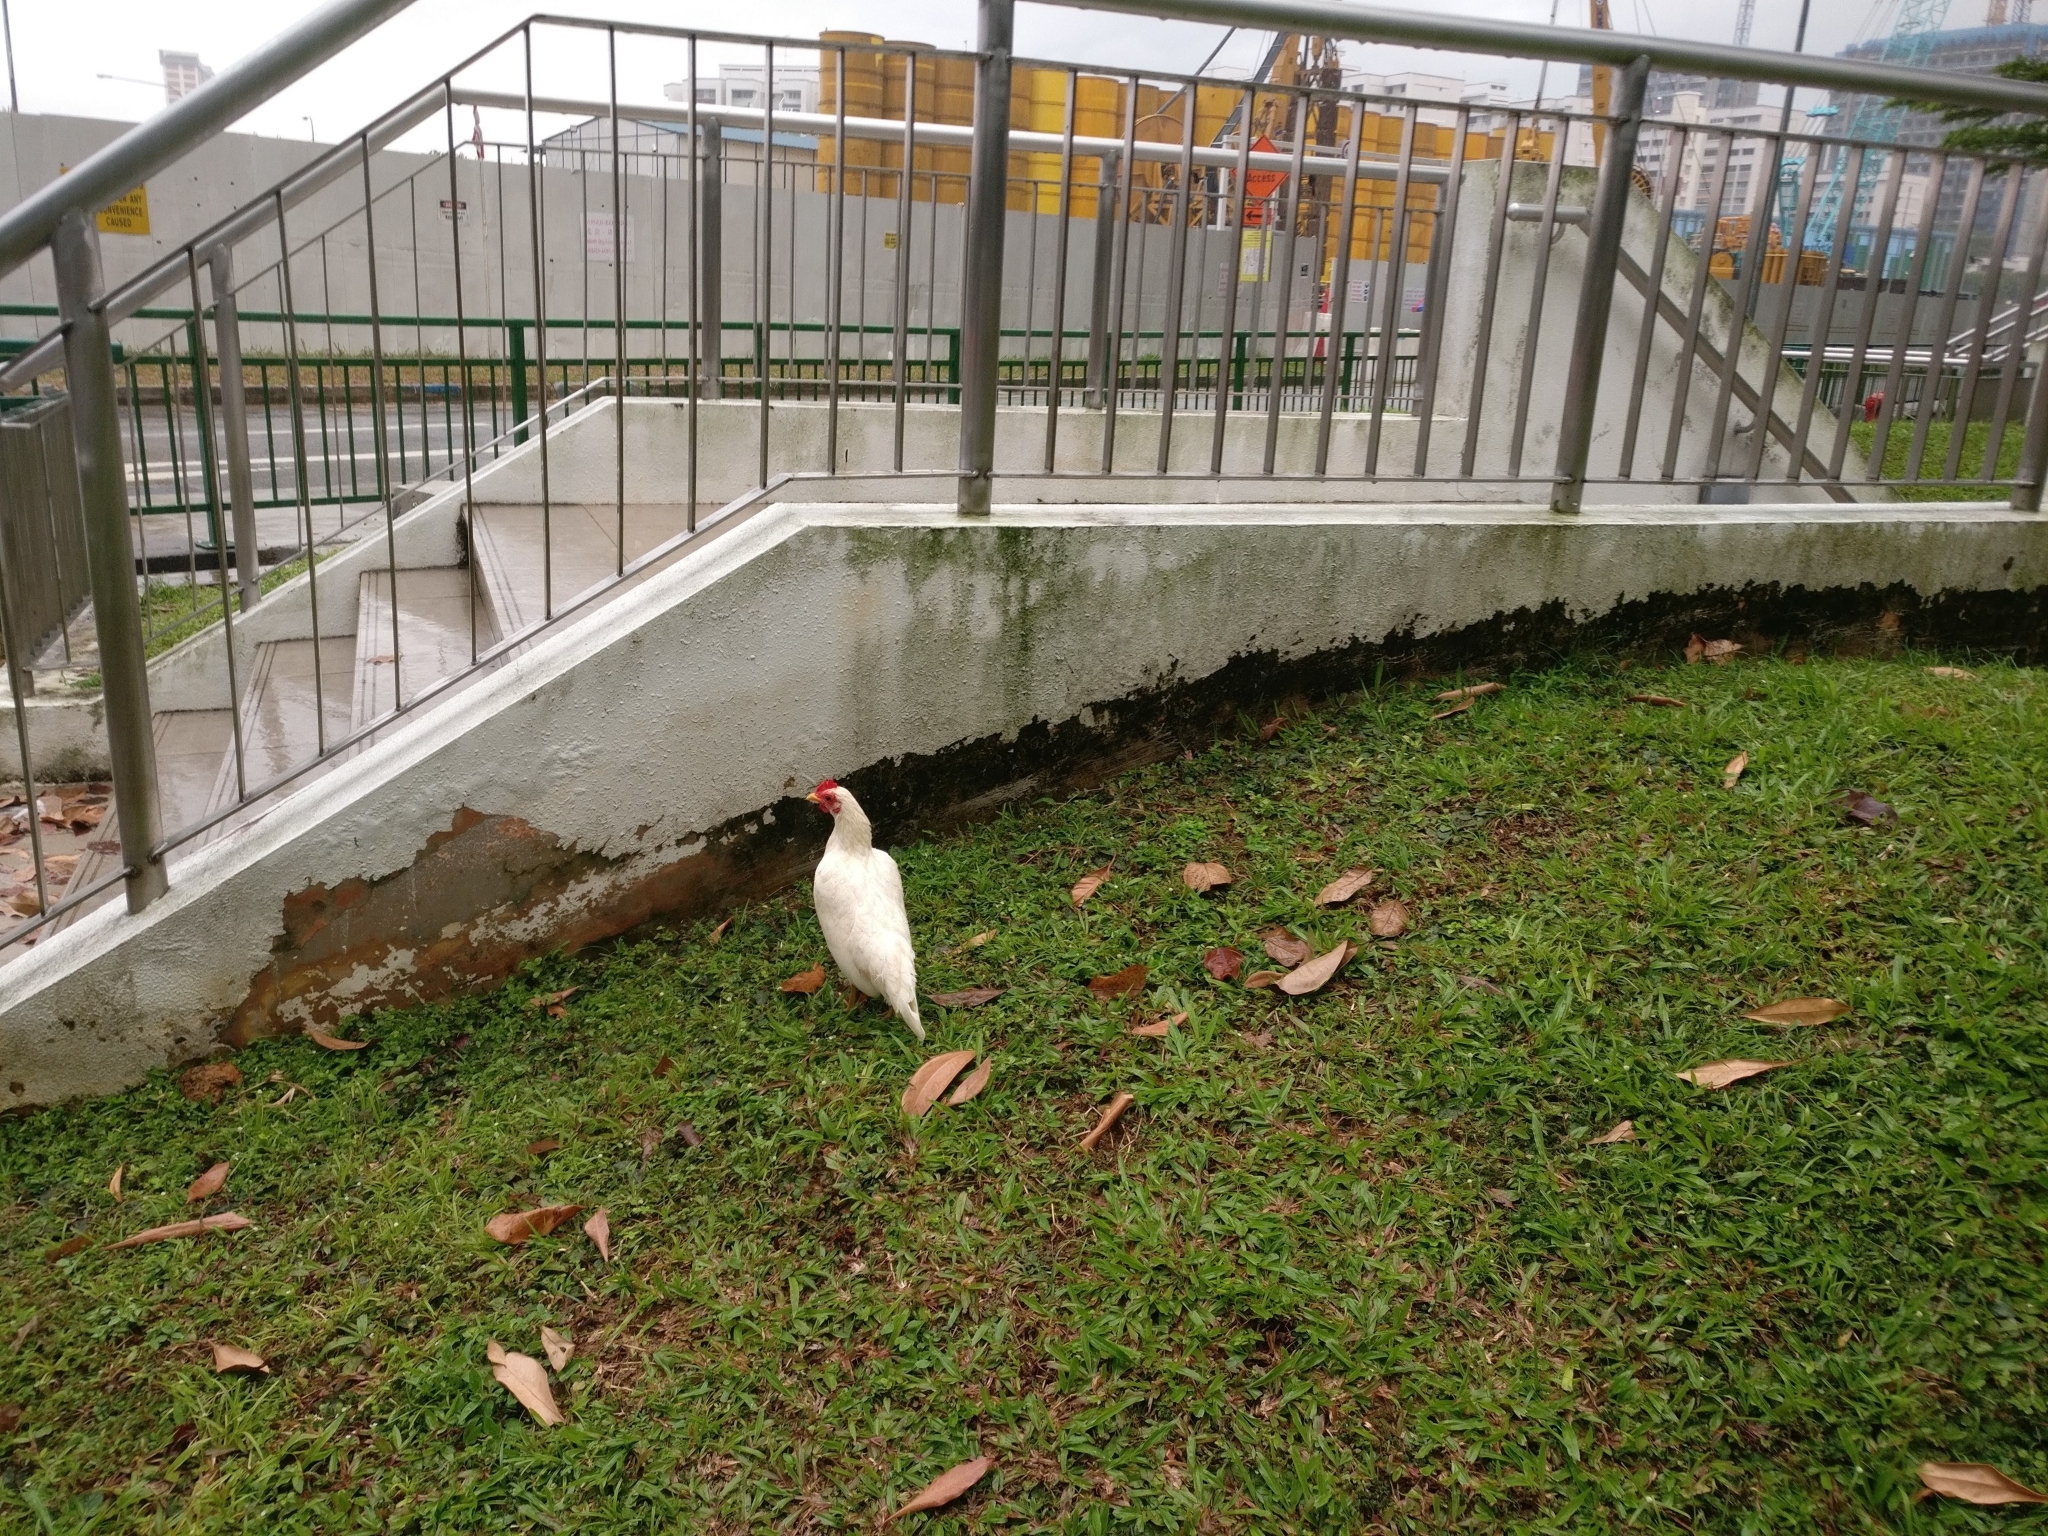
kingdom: Animalia
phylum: Chordata
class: Aves
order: Galliformes
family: Phasianidae
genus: Gallus
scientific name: Gallus gallus
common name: Red junglefowl
